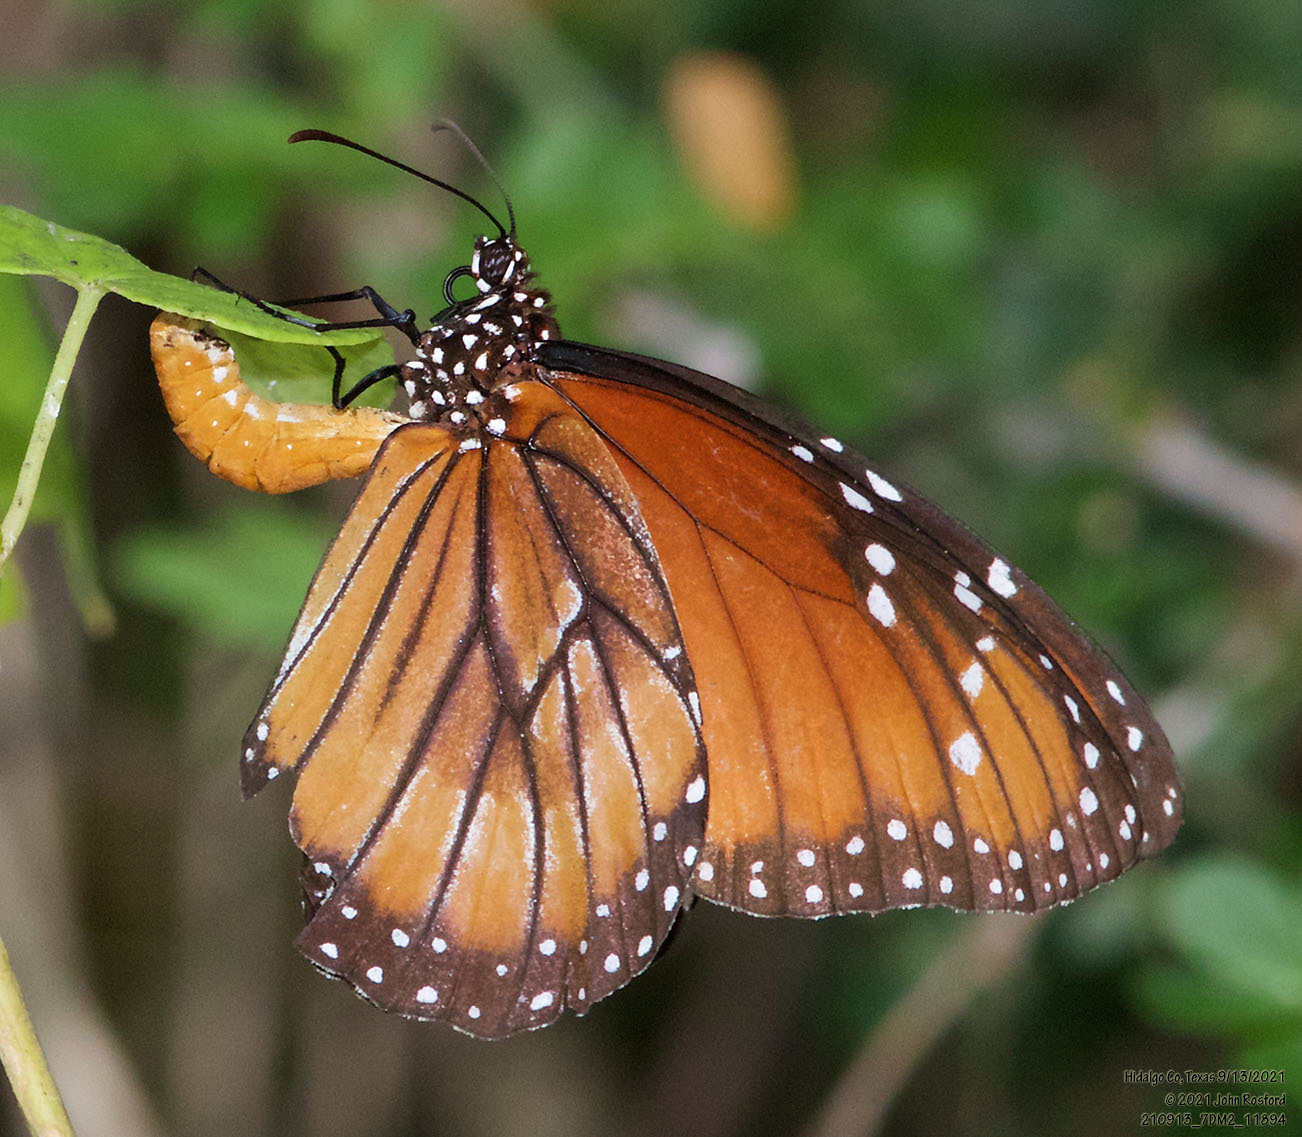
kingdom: Animalia
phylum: Arthropoda
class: Insecta
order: Lepidoptera
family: Nymphalidae
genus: Danaus
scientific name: Danaus eresimus
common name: Soldier
